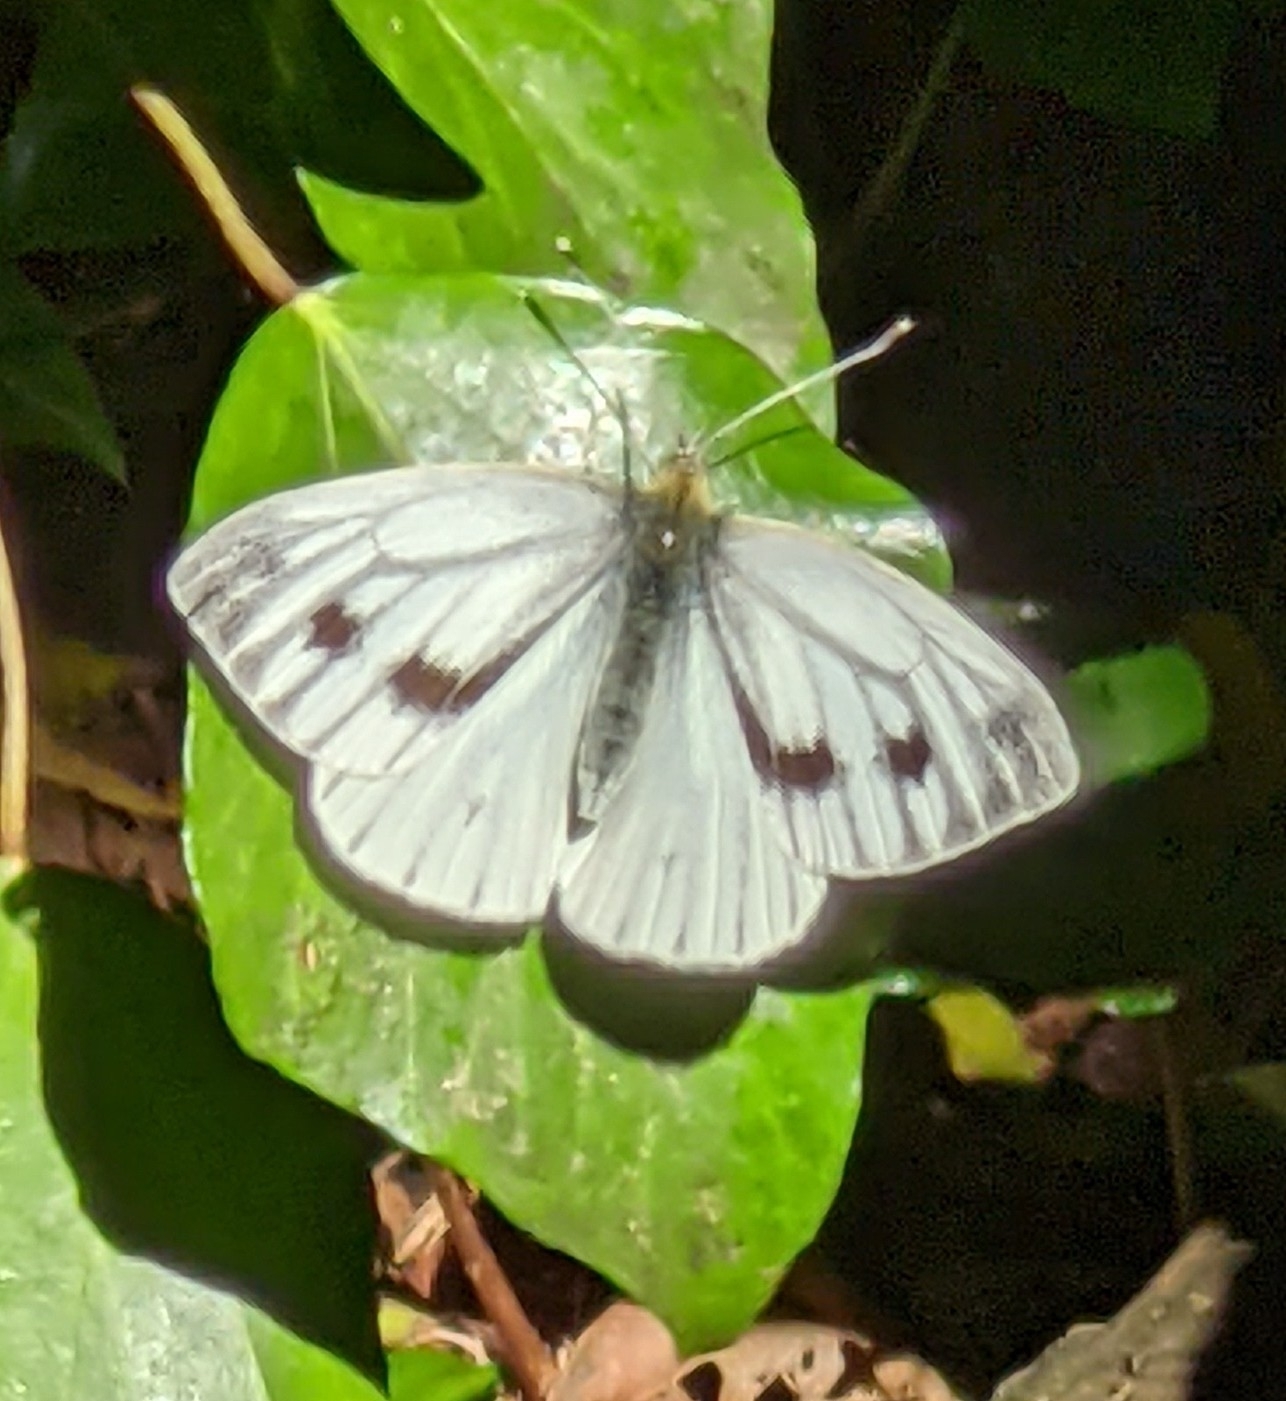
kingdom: Animalia
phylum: Arthropoda
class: Insecta
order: Lepidoptera
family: Pieridae
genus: Pieris
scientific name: Pieris napi
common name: Green-veined white
